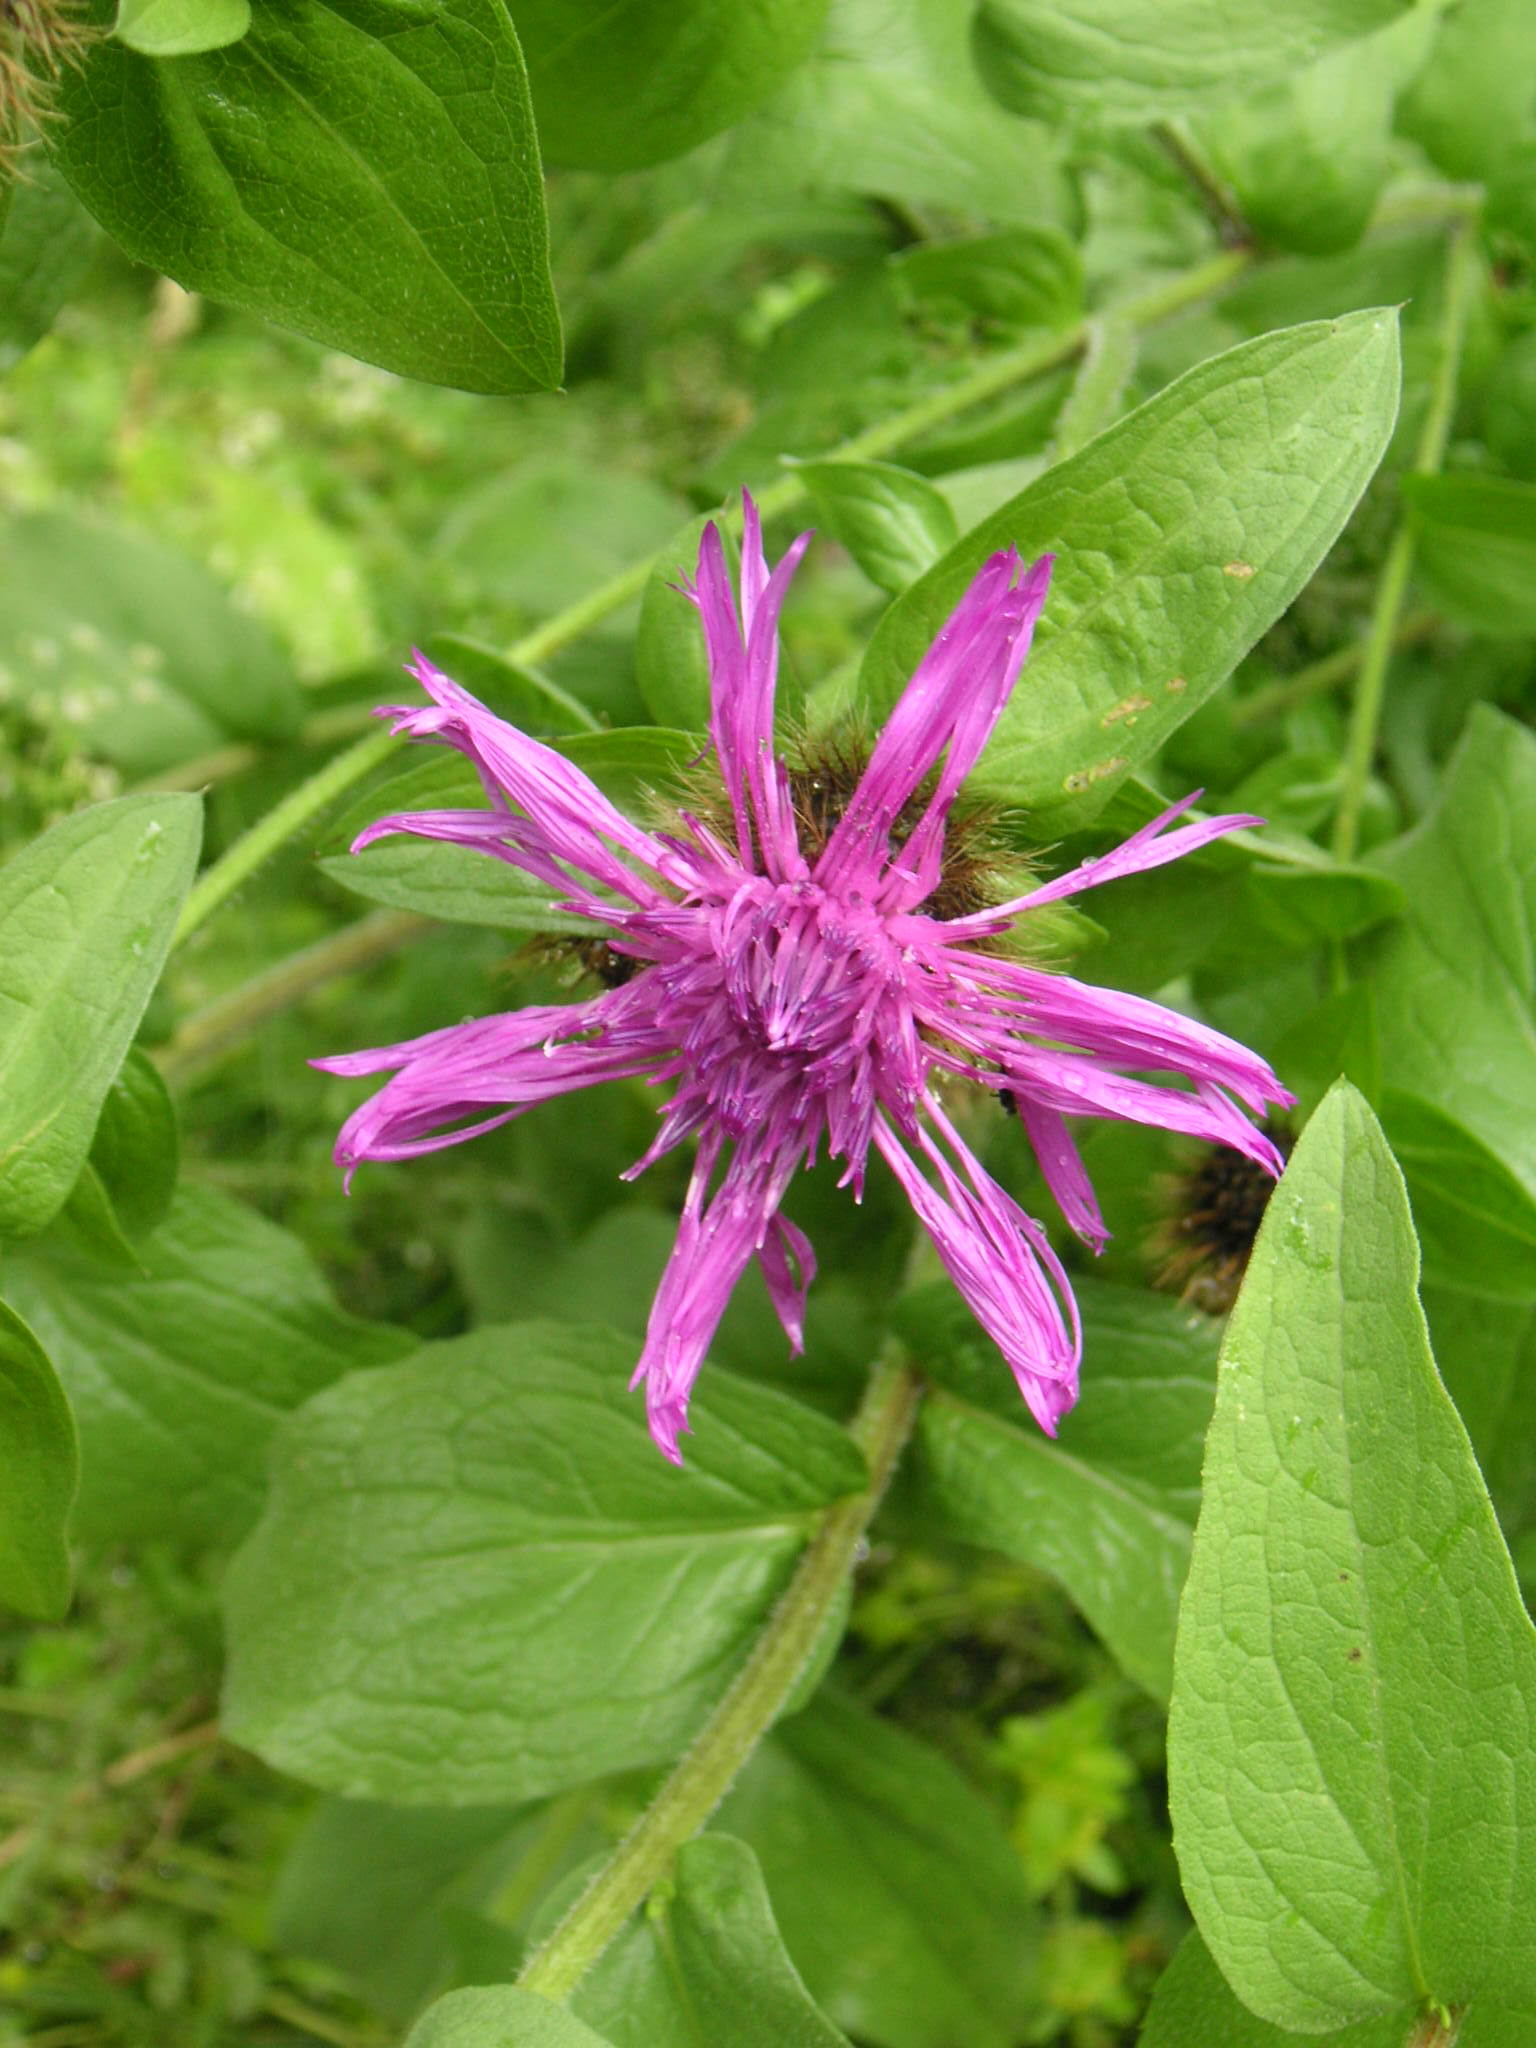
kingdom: Plantae
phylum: Tracheophyta
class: Magnoliopsida
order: Asterales
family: Asteraceae
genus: Centaurea
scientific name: Centaurea pseudophrygia
